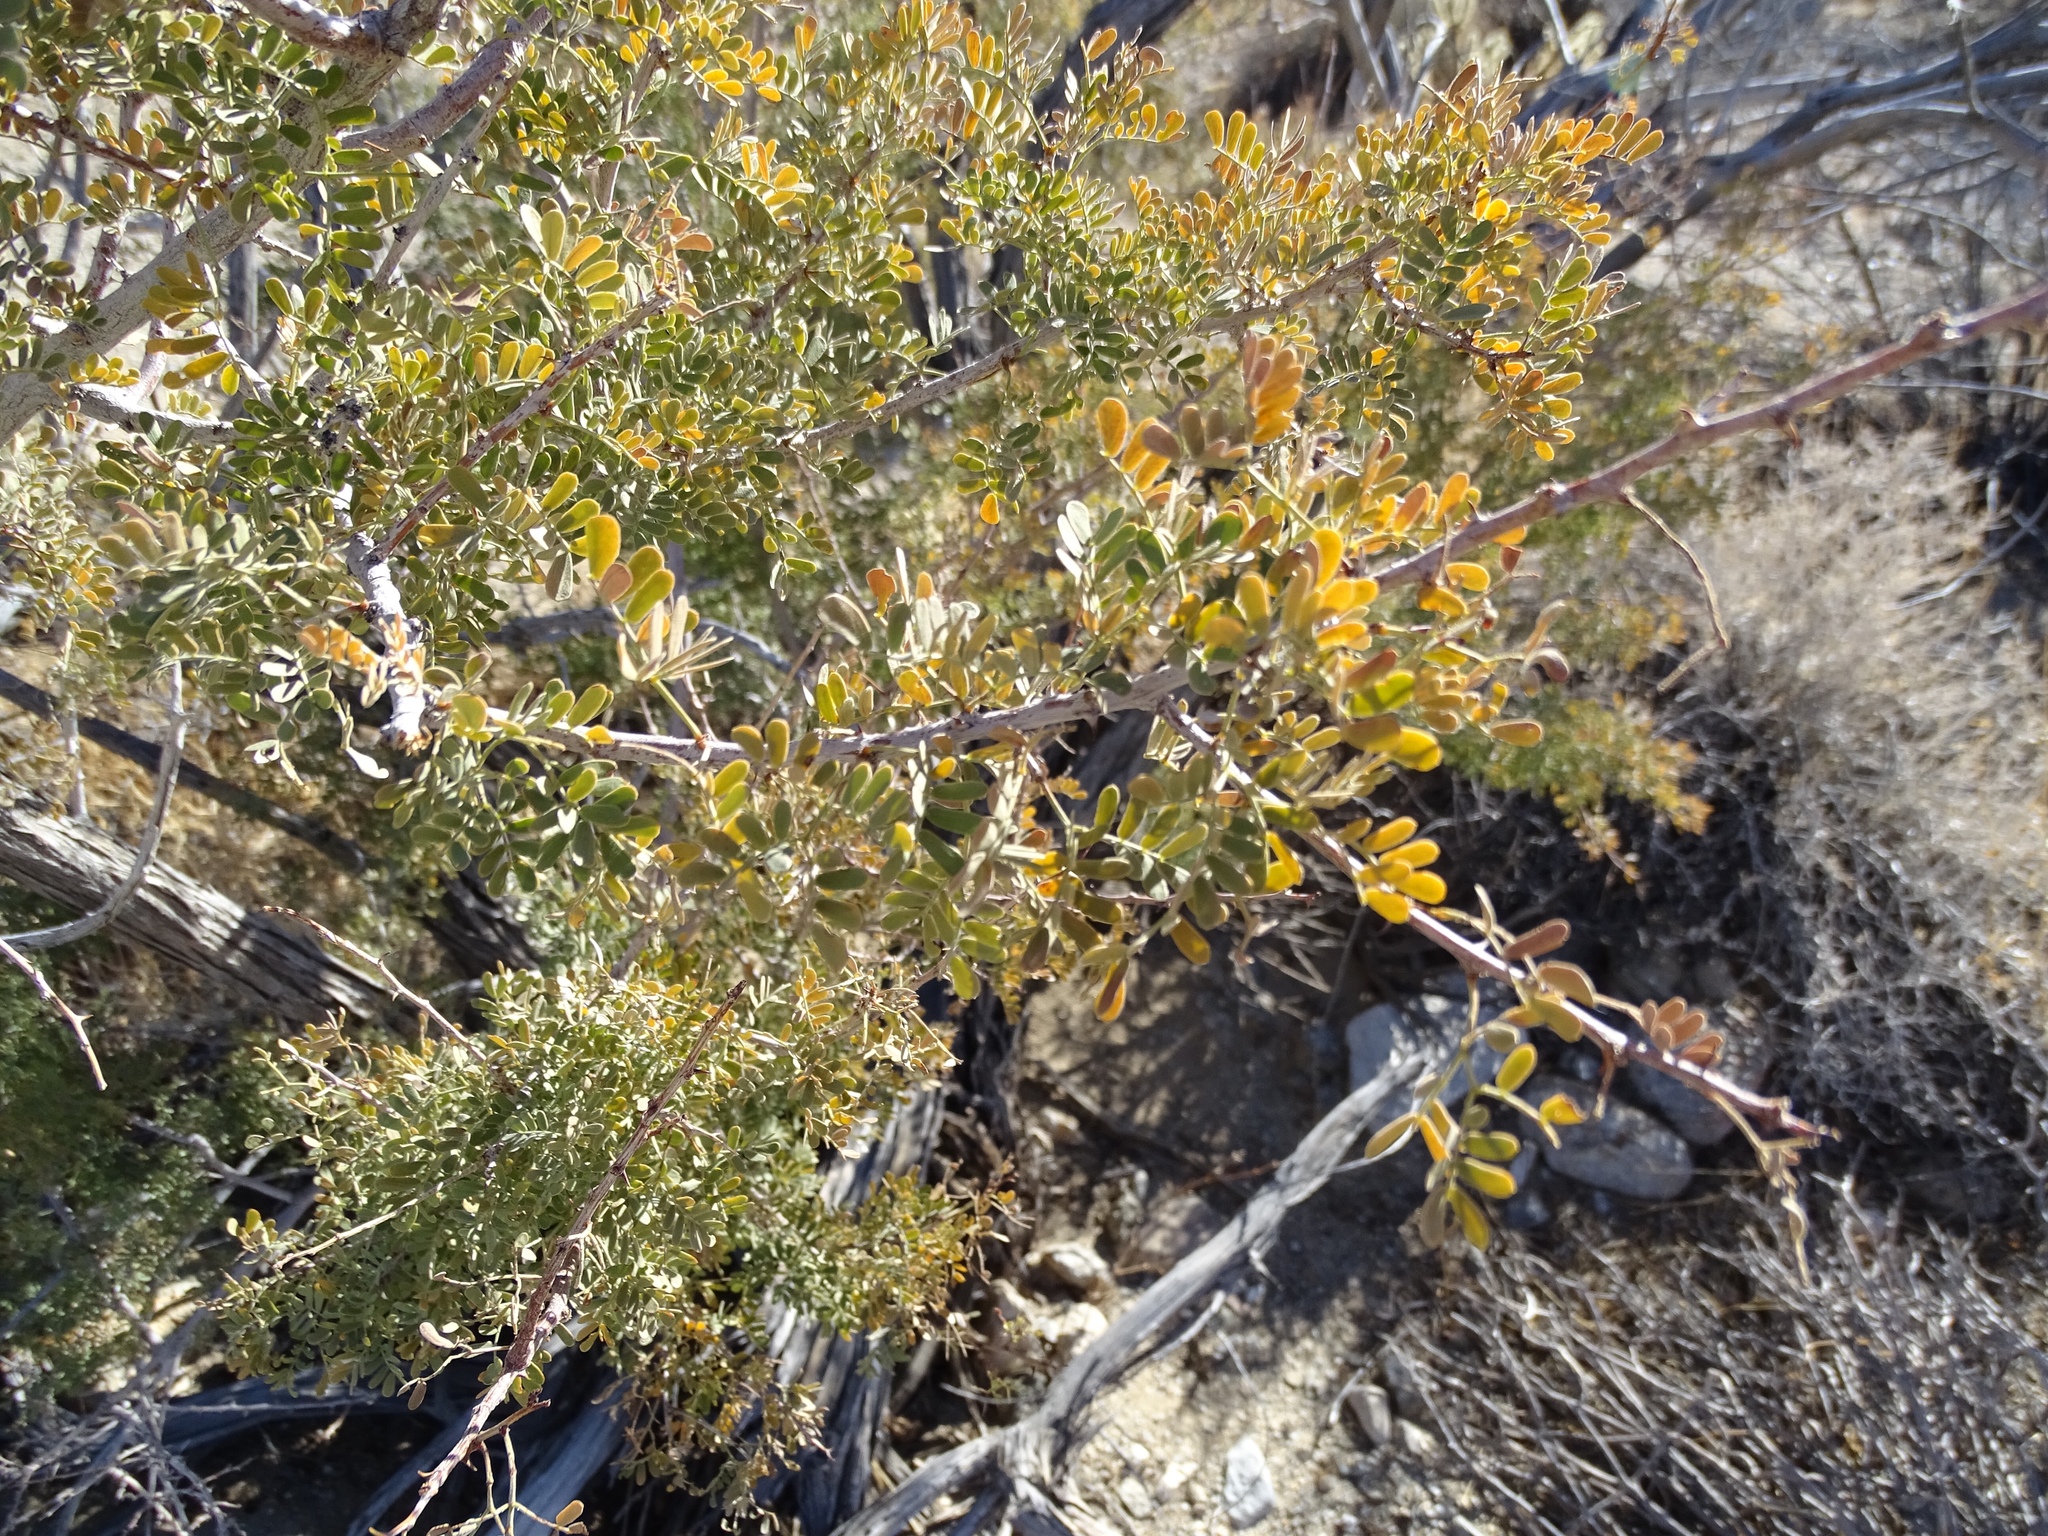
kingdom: Plantae
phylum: Tracheophyta
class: Magnoliopsida
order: Fabales
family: Fabaceae
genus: Senegalia
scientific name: Senegalia greggii
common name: Texas-mimosa
